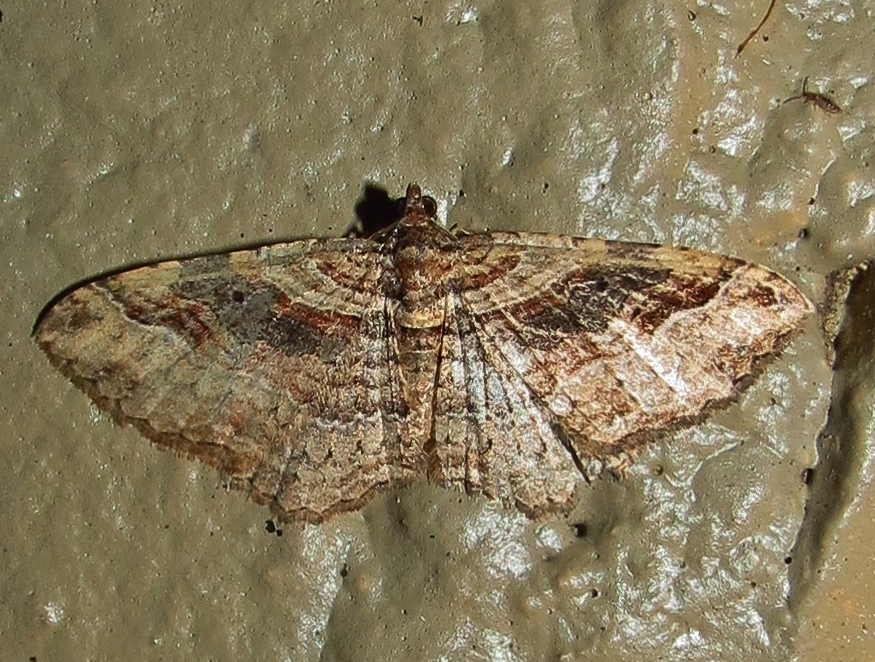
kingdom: Animalia
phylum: Arthropoda
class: Insecta
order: Lepidoptera
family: Geometridae
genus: Costaconvexa
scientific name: Costaconvexa centrostrigaria
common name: Bent-line carpet
